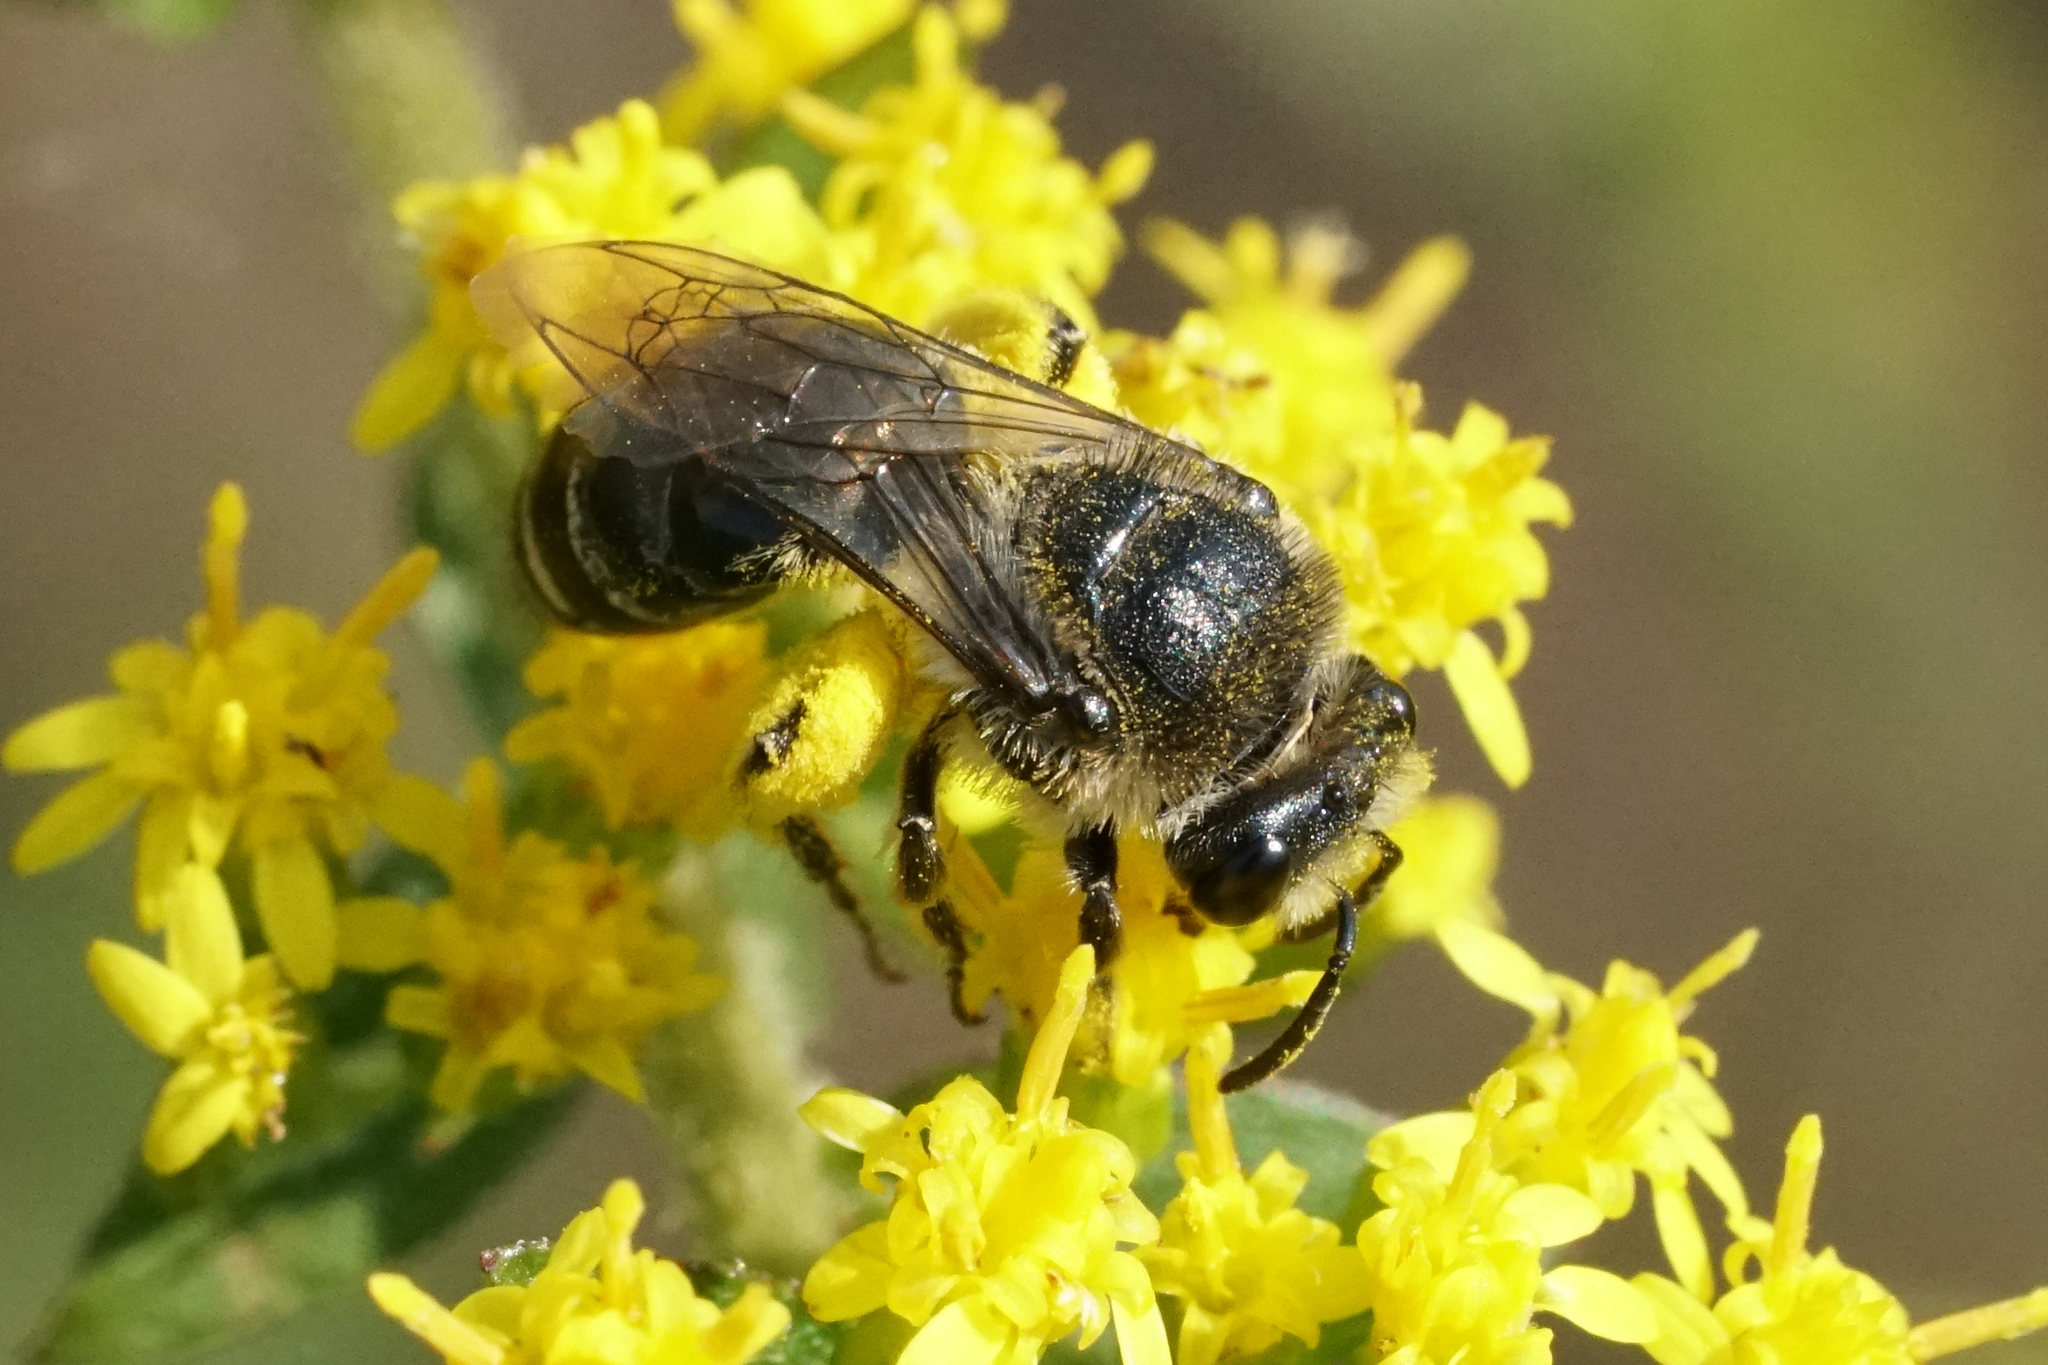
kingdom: Animalia
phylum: Arthropoda
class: Insecta
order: Hymenoptera
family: Colletidae
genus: Colletes
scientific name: Colletes simulans
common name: Spine-shouldered cellophane bee
